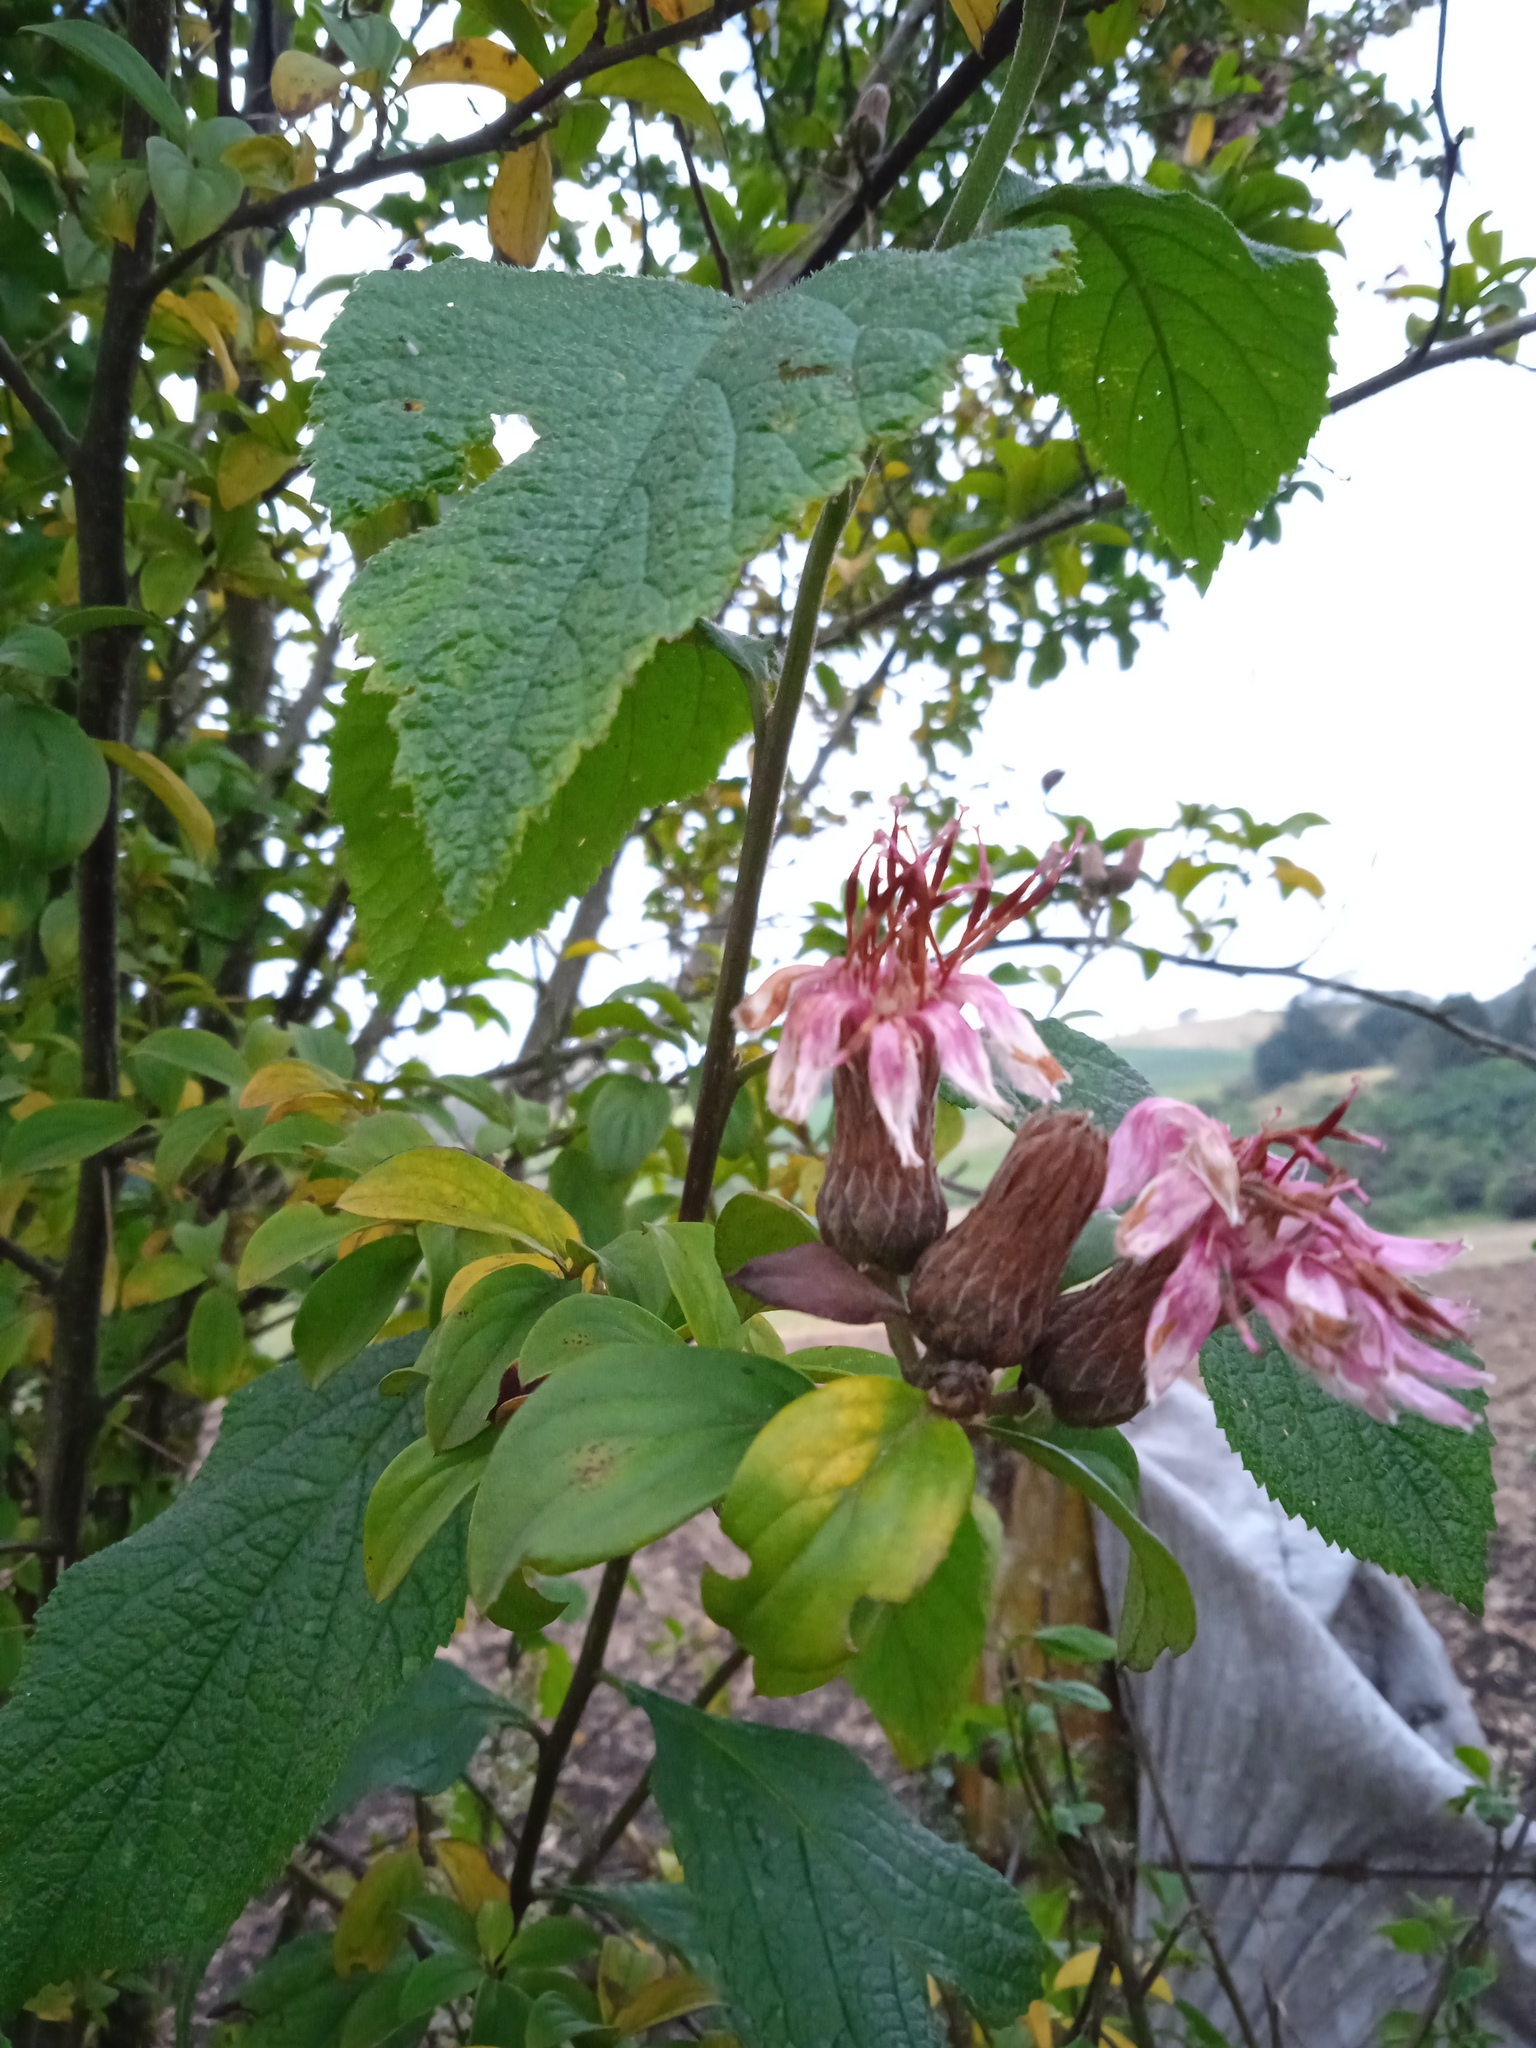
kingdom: Plantae
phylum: Tracheophyta
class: Magnoliopsida
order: Asterales
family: Asteraceae
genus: Barnadesia
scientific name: Barnadesia spinosa
